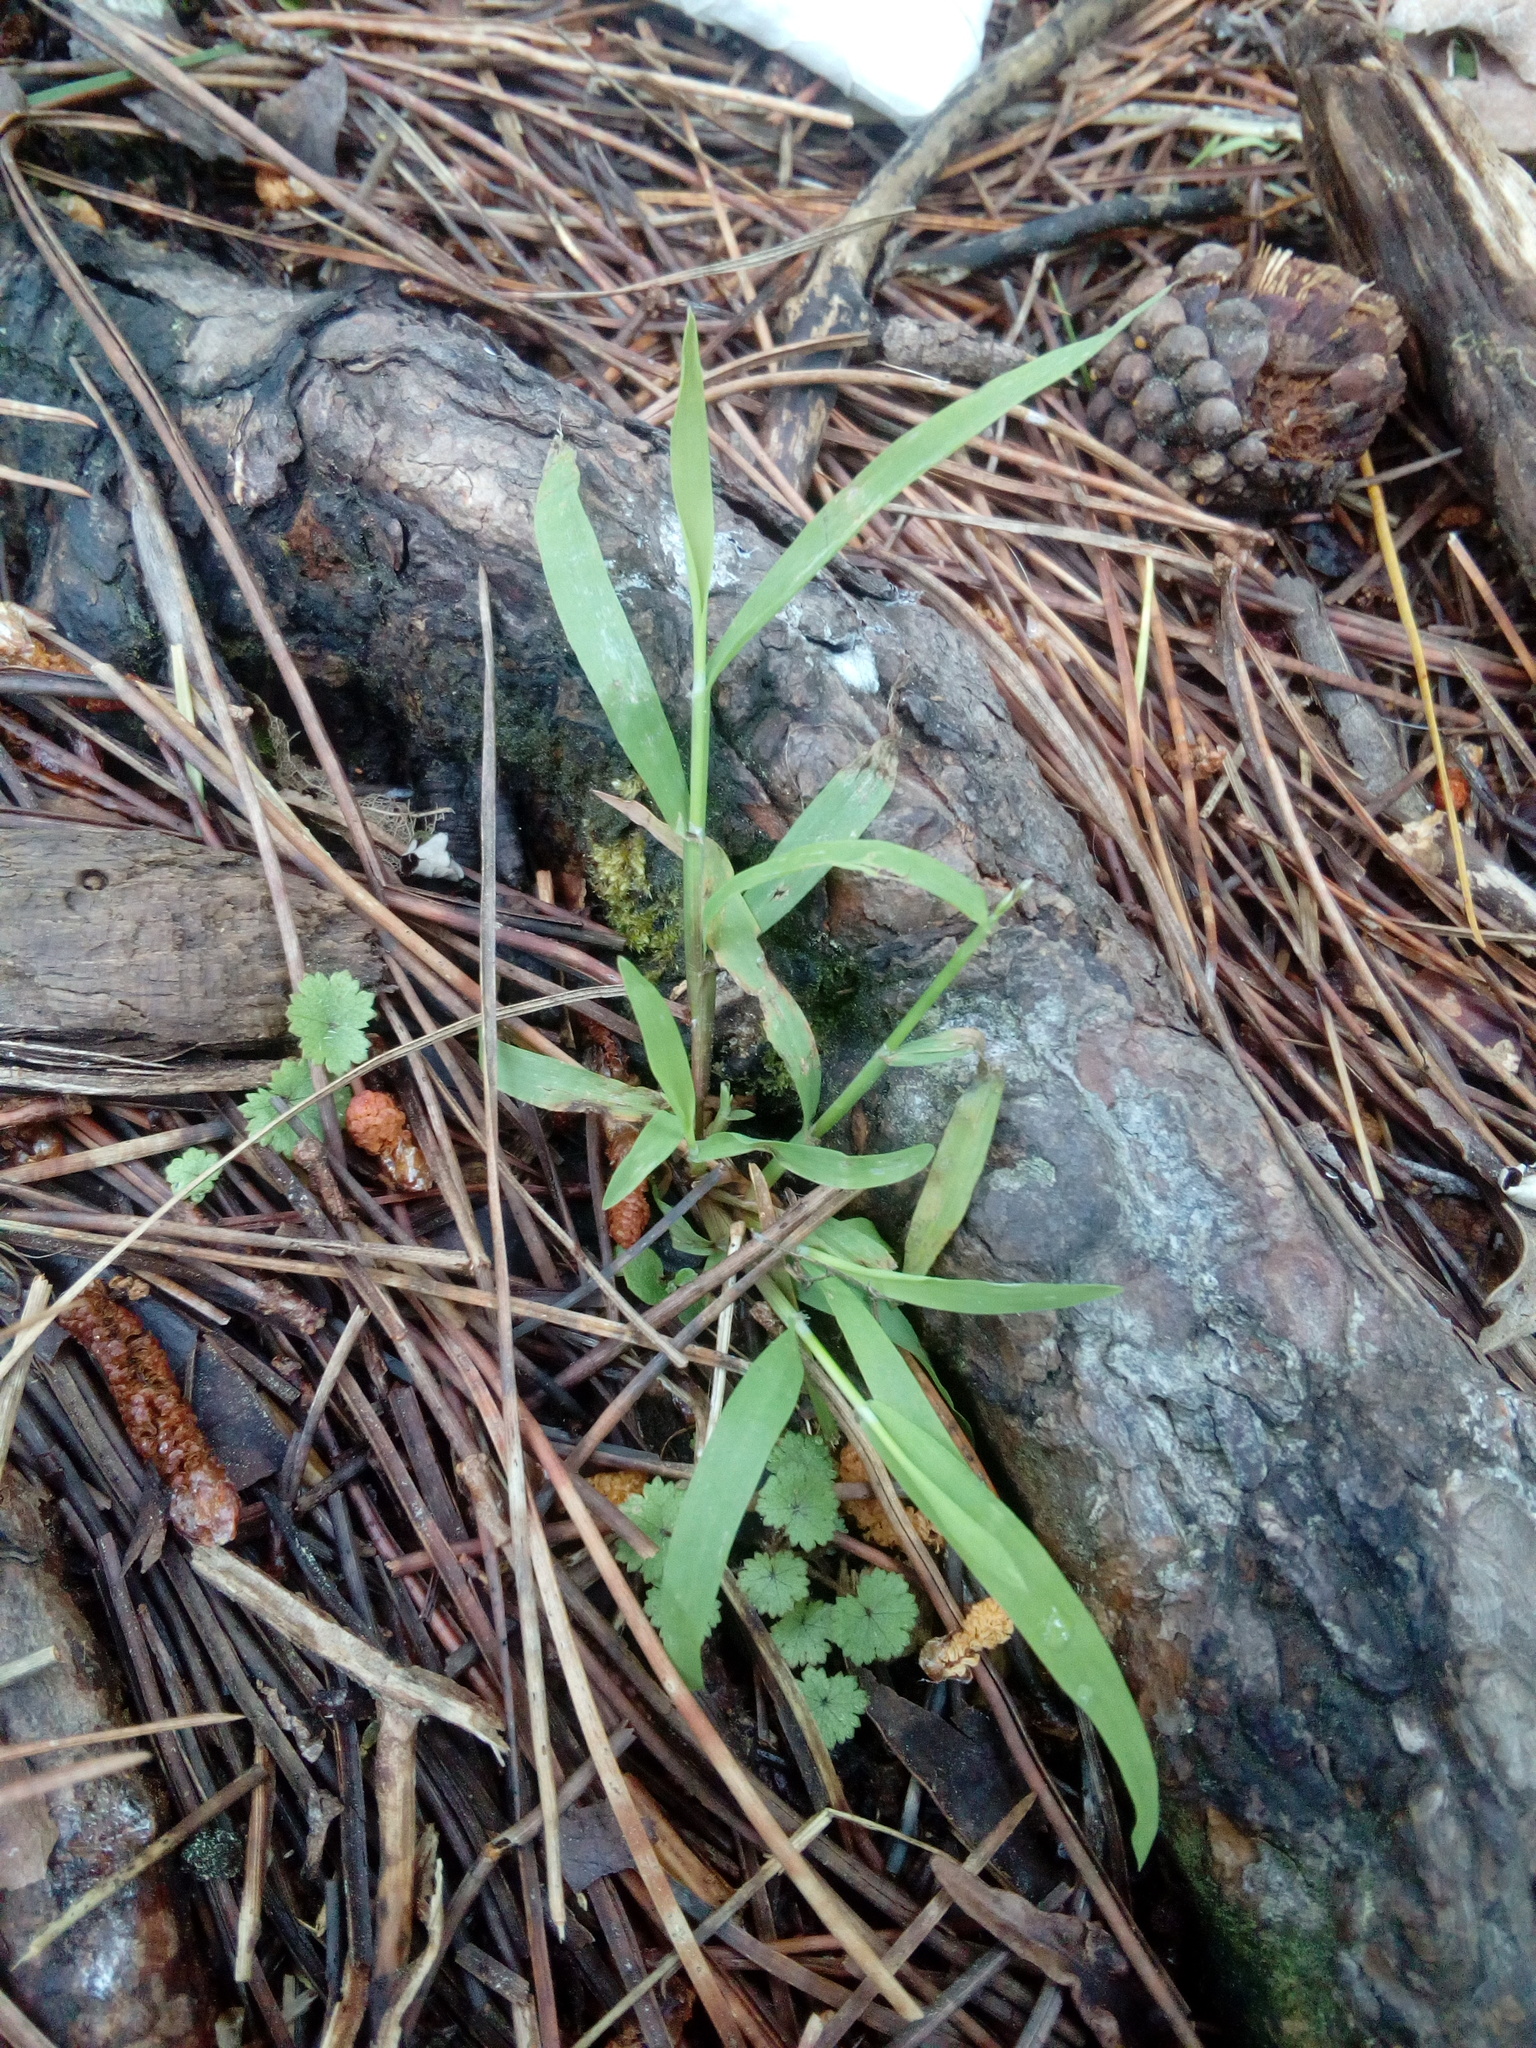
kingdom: Plantae
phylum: Tracheophyta
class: Magnoliopsida
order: Apiales
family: Araliaceae
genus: Hydrocotyle
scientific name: Hydrocotyle moschata
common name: Hairy pennywort
